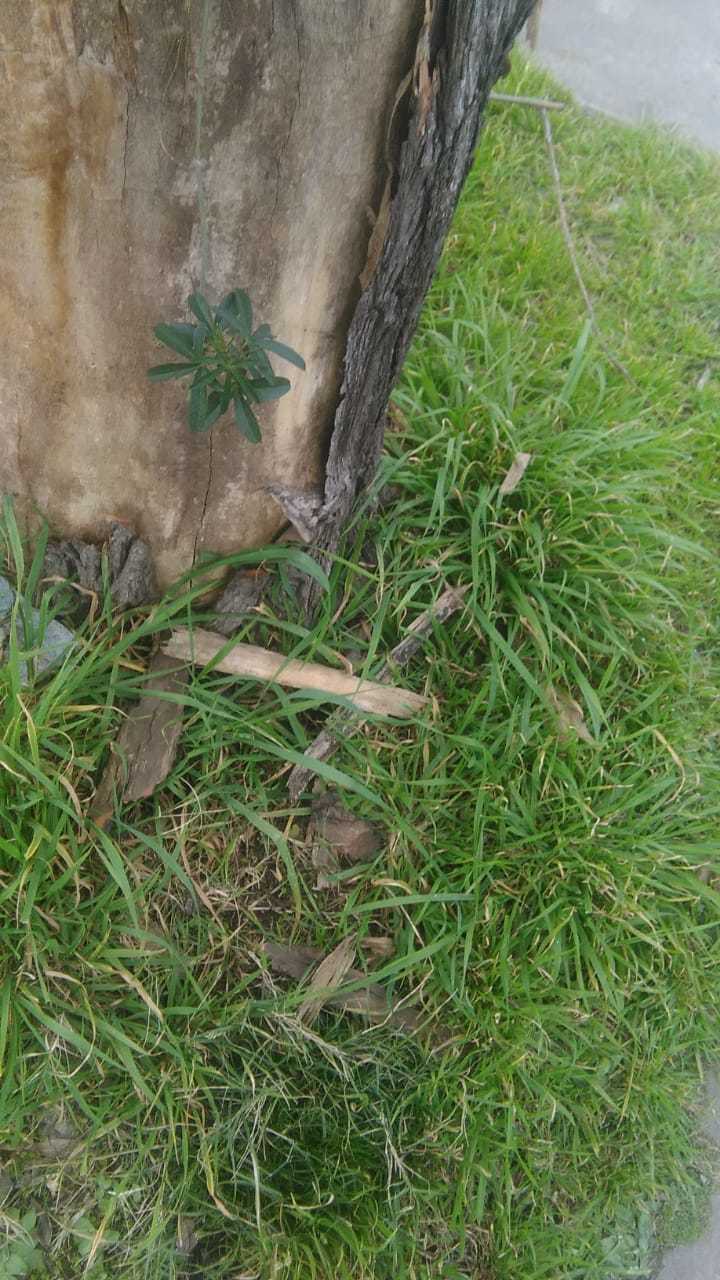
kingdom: Plantae
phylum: Tracheophyta
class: Magnoliopsida
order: Malpighiales
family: Passifloraceae
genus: Passiflora
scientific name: Passiflora caerulea
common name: Blue passionflower
